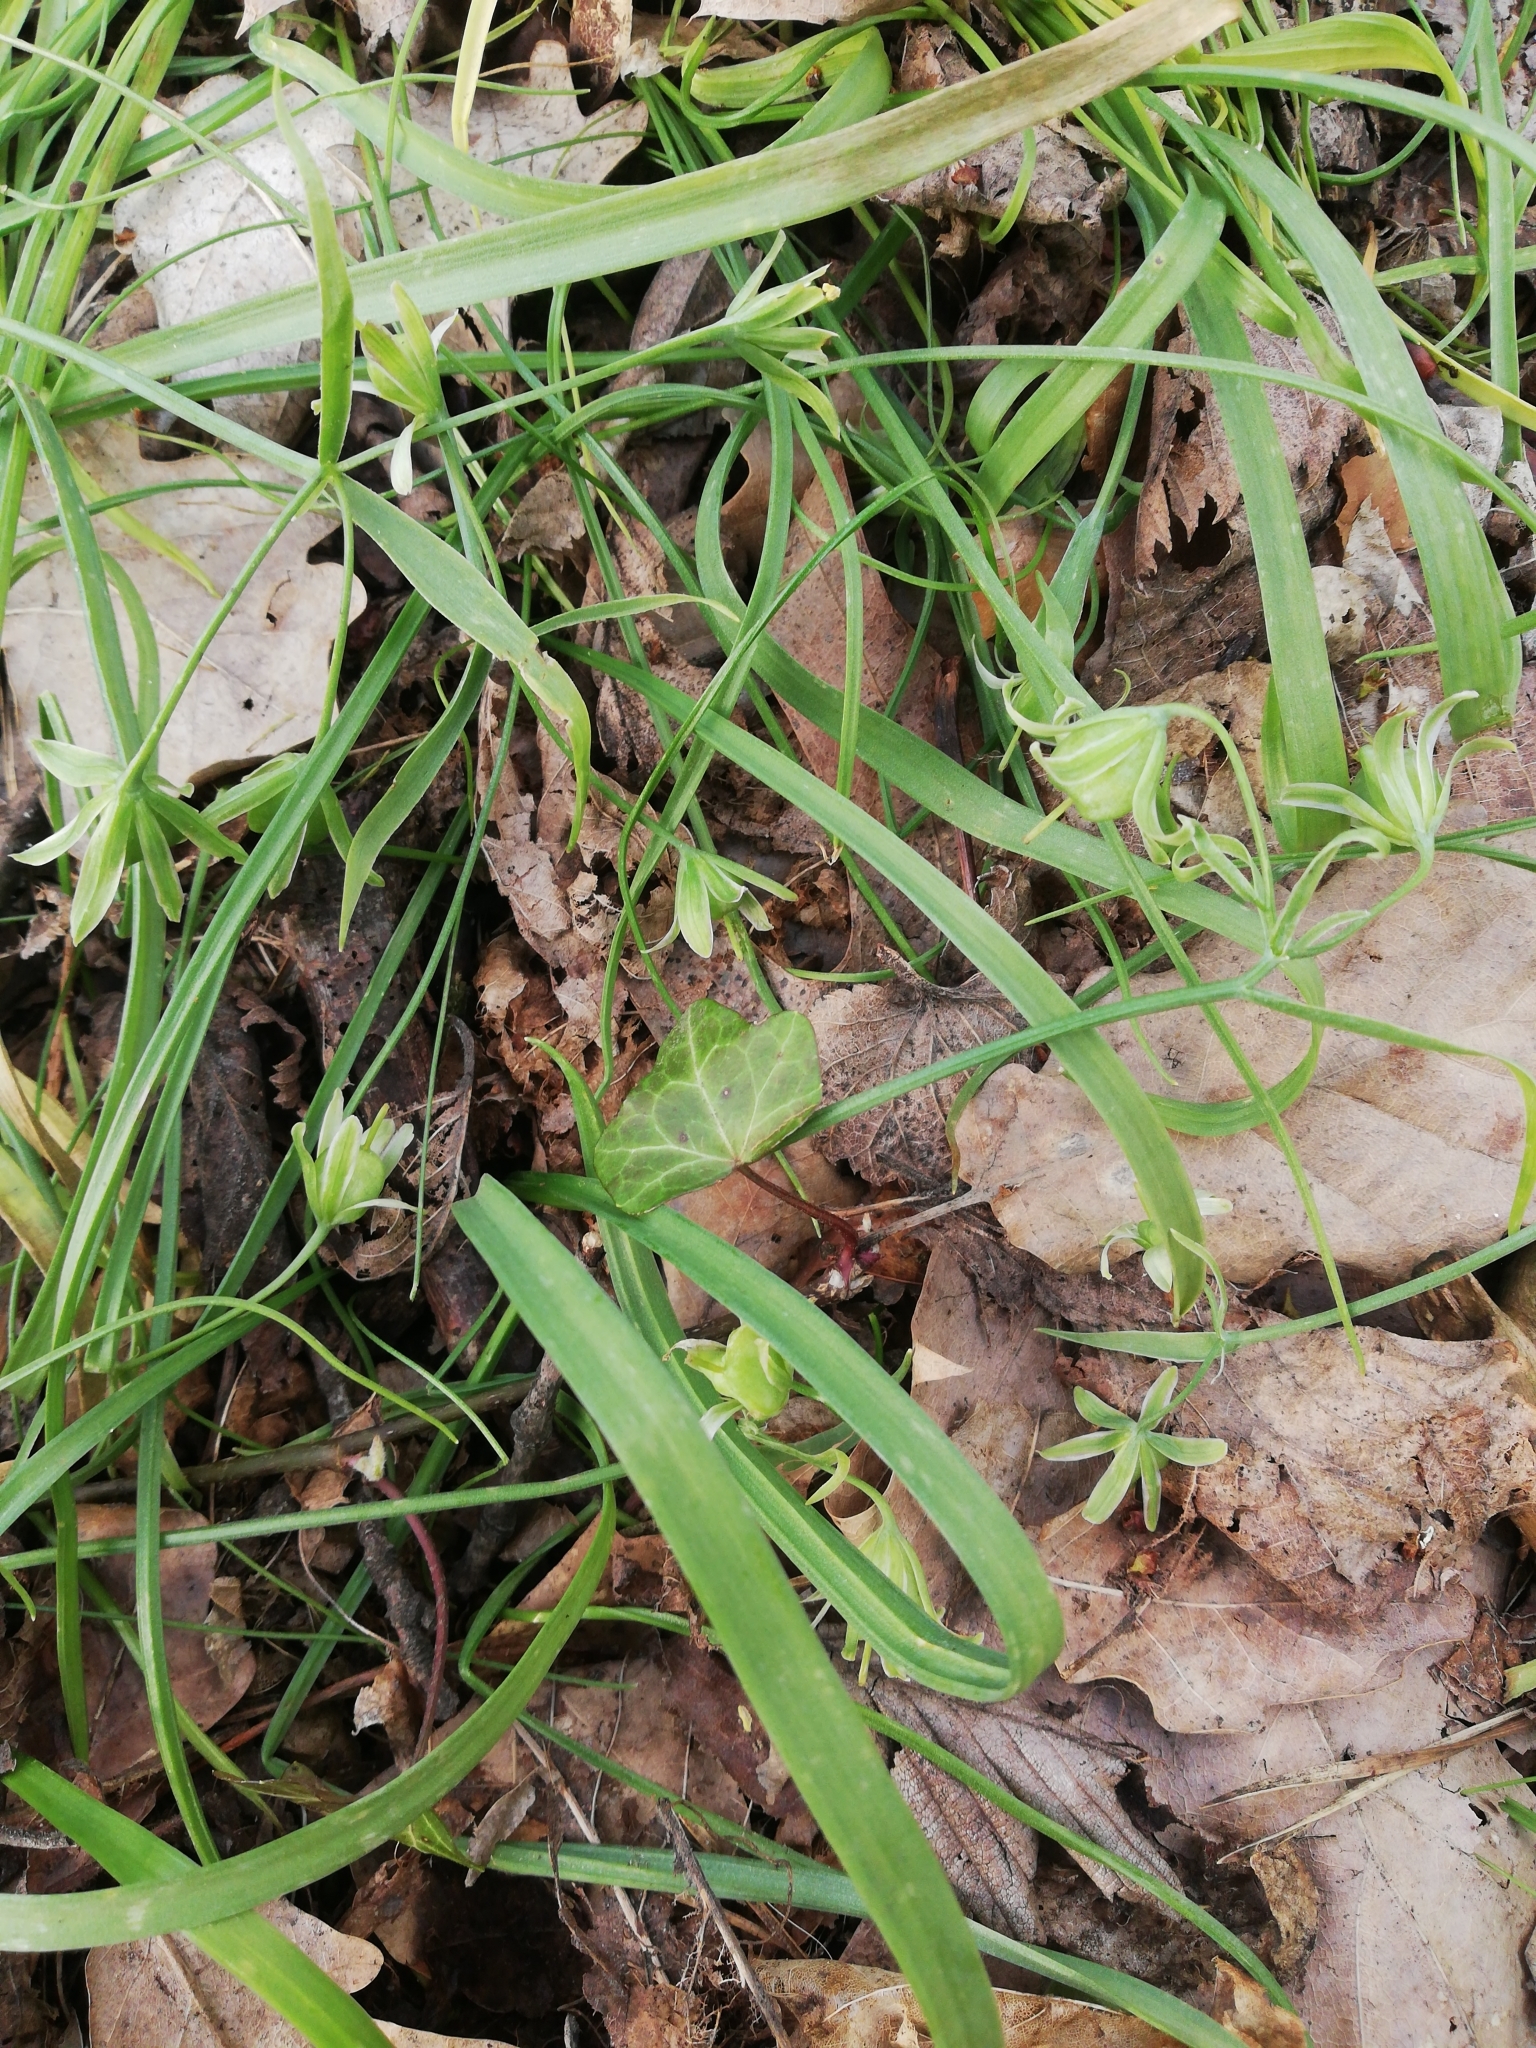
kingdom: Plantae
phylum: Tracheophyta
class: Liliopsida
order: Liliales
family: Liliaceae
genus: Gagea
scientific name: Gagea lutea
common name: Yellow star-of-bethlehem
